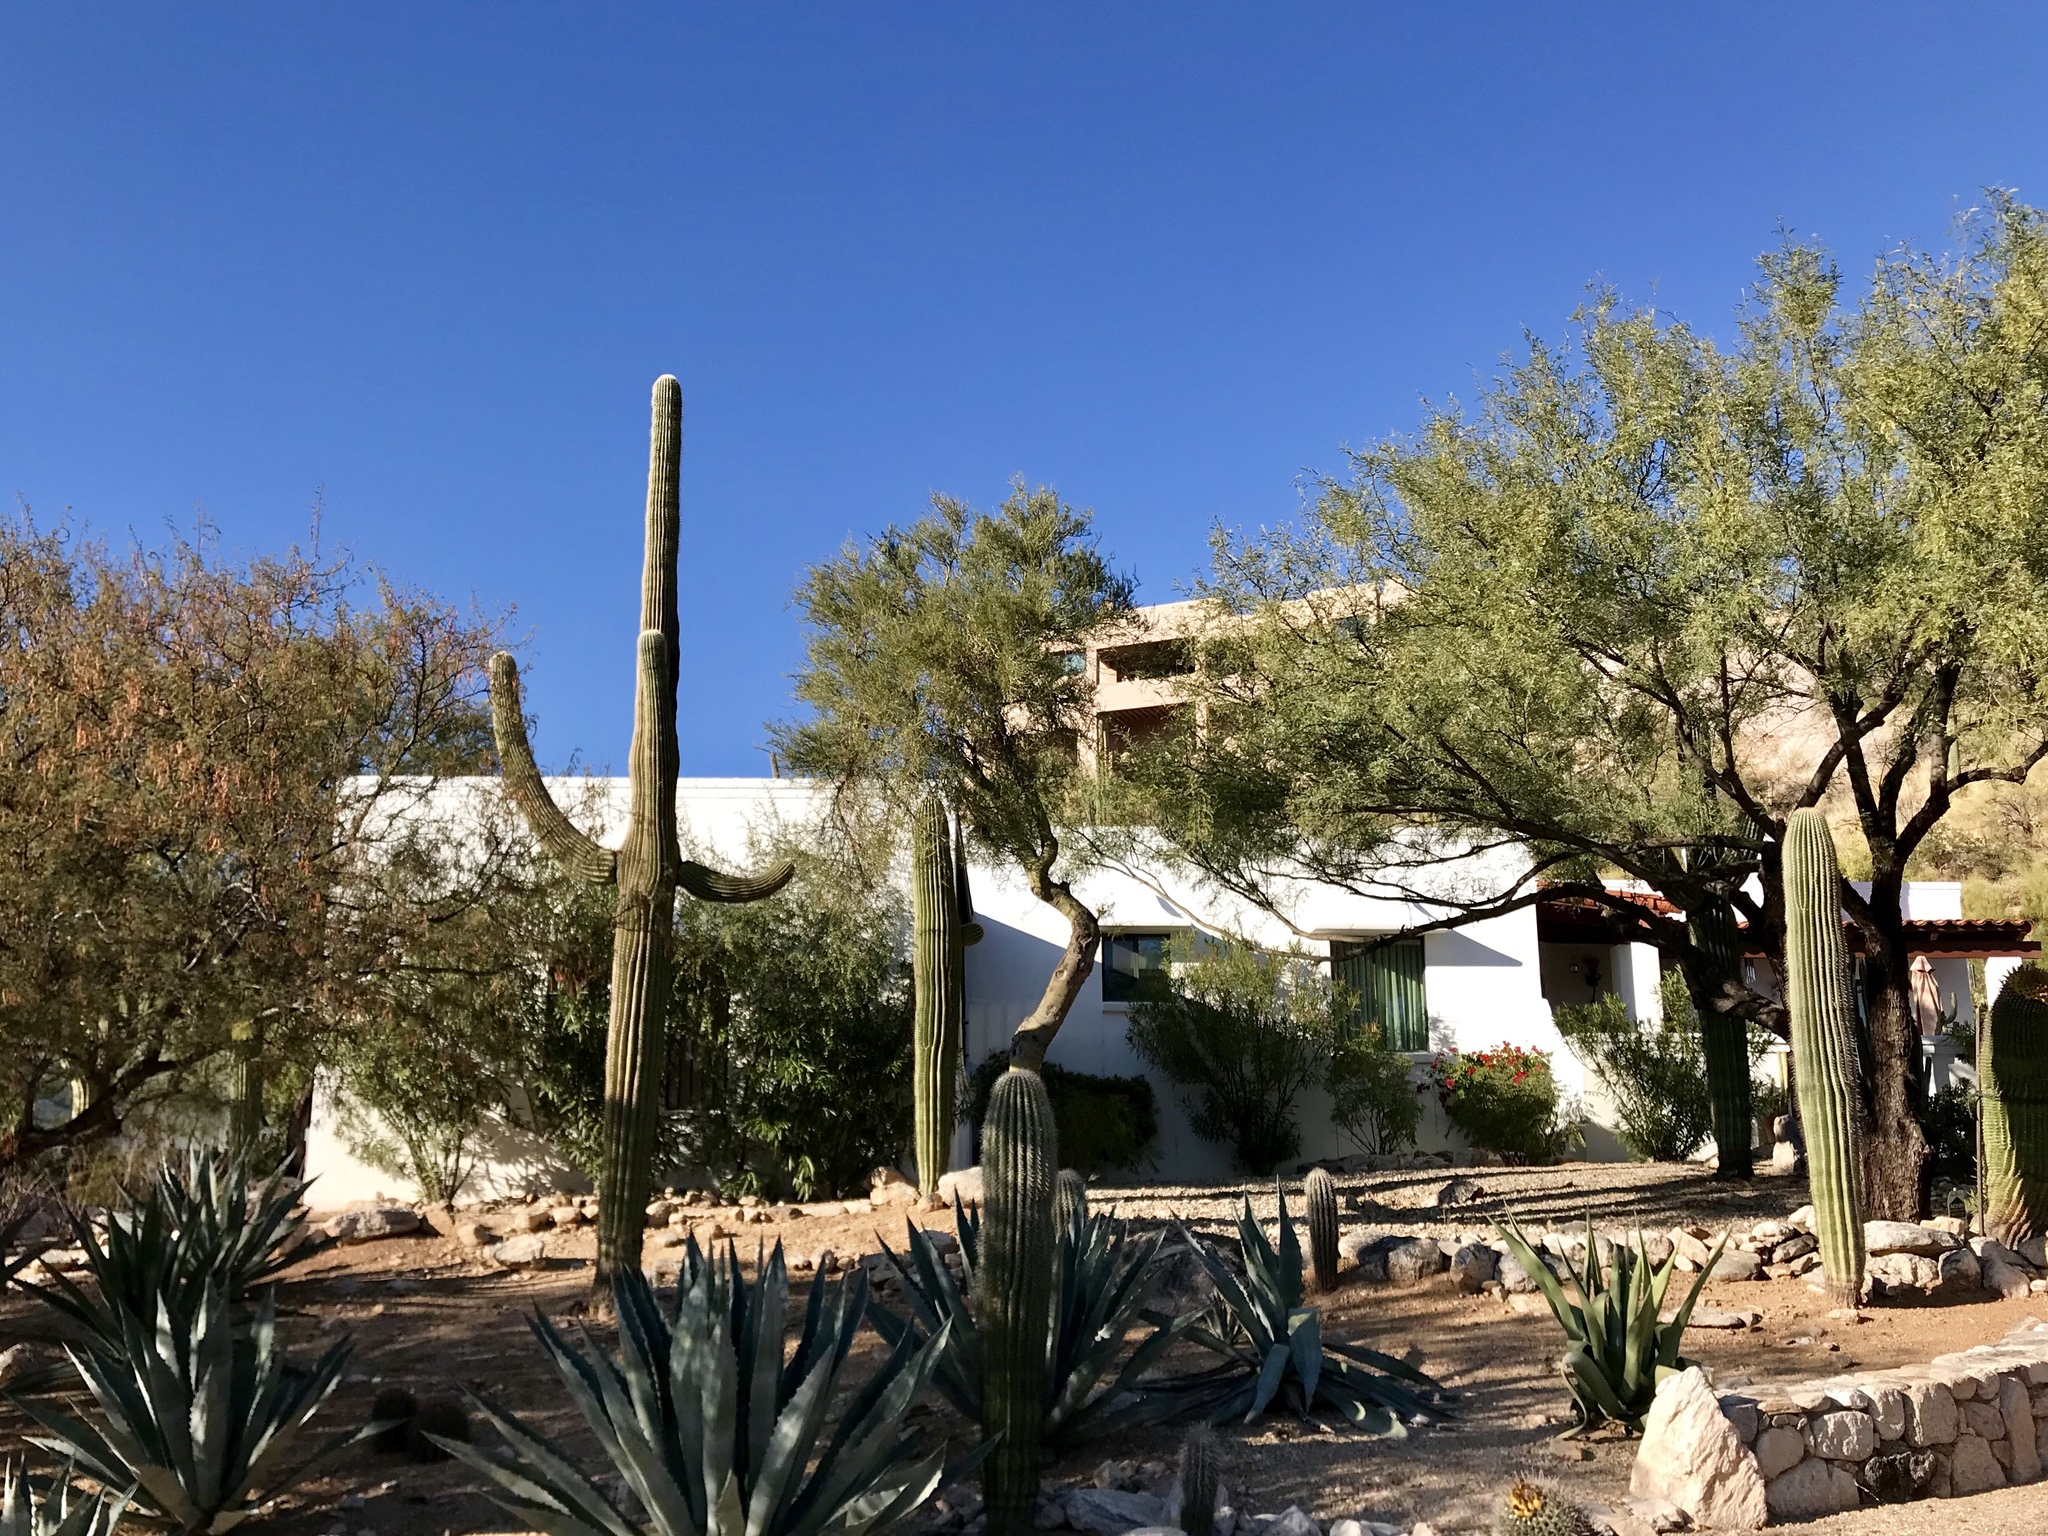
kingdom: Plantae
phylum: Tracheophyta
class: Magnoliopsida
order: Caryophyllales
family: Cactaceae
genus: Carnegiea
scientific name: Carnegiea gigantea
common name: Saguaro
